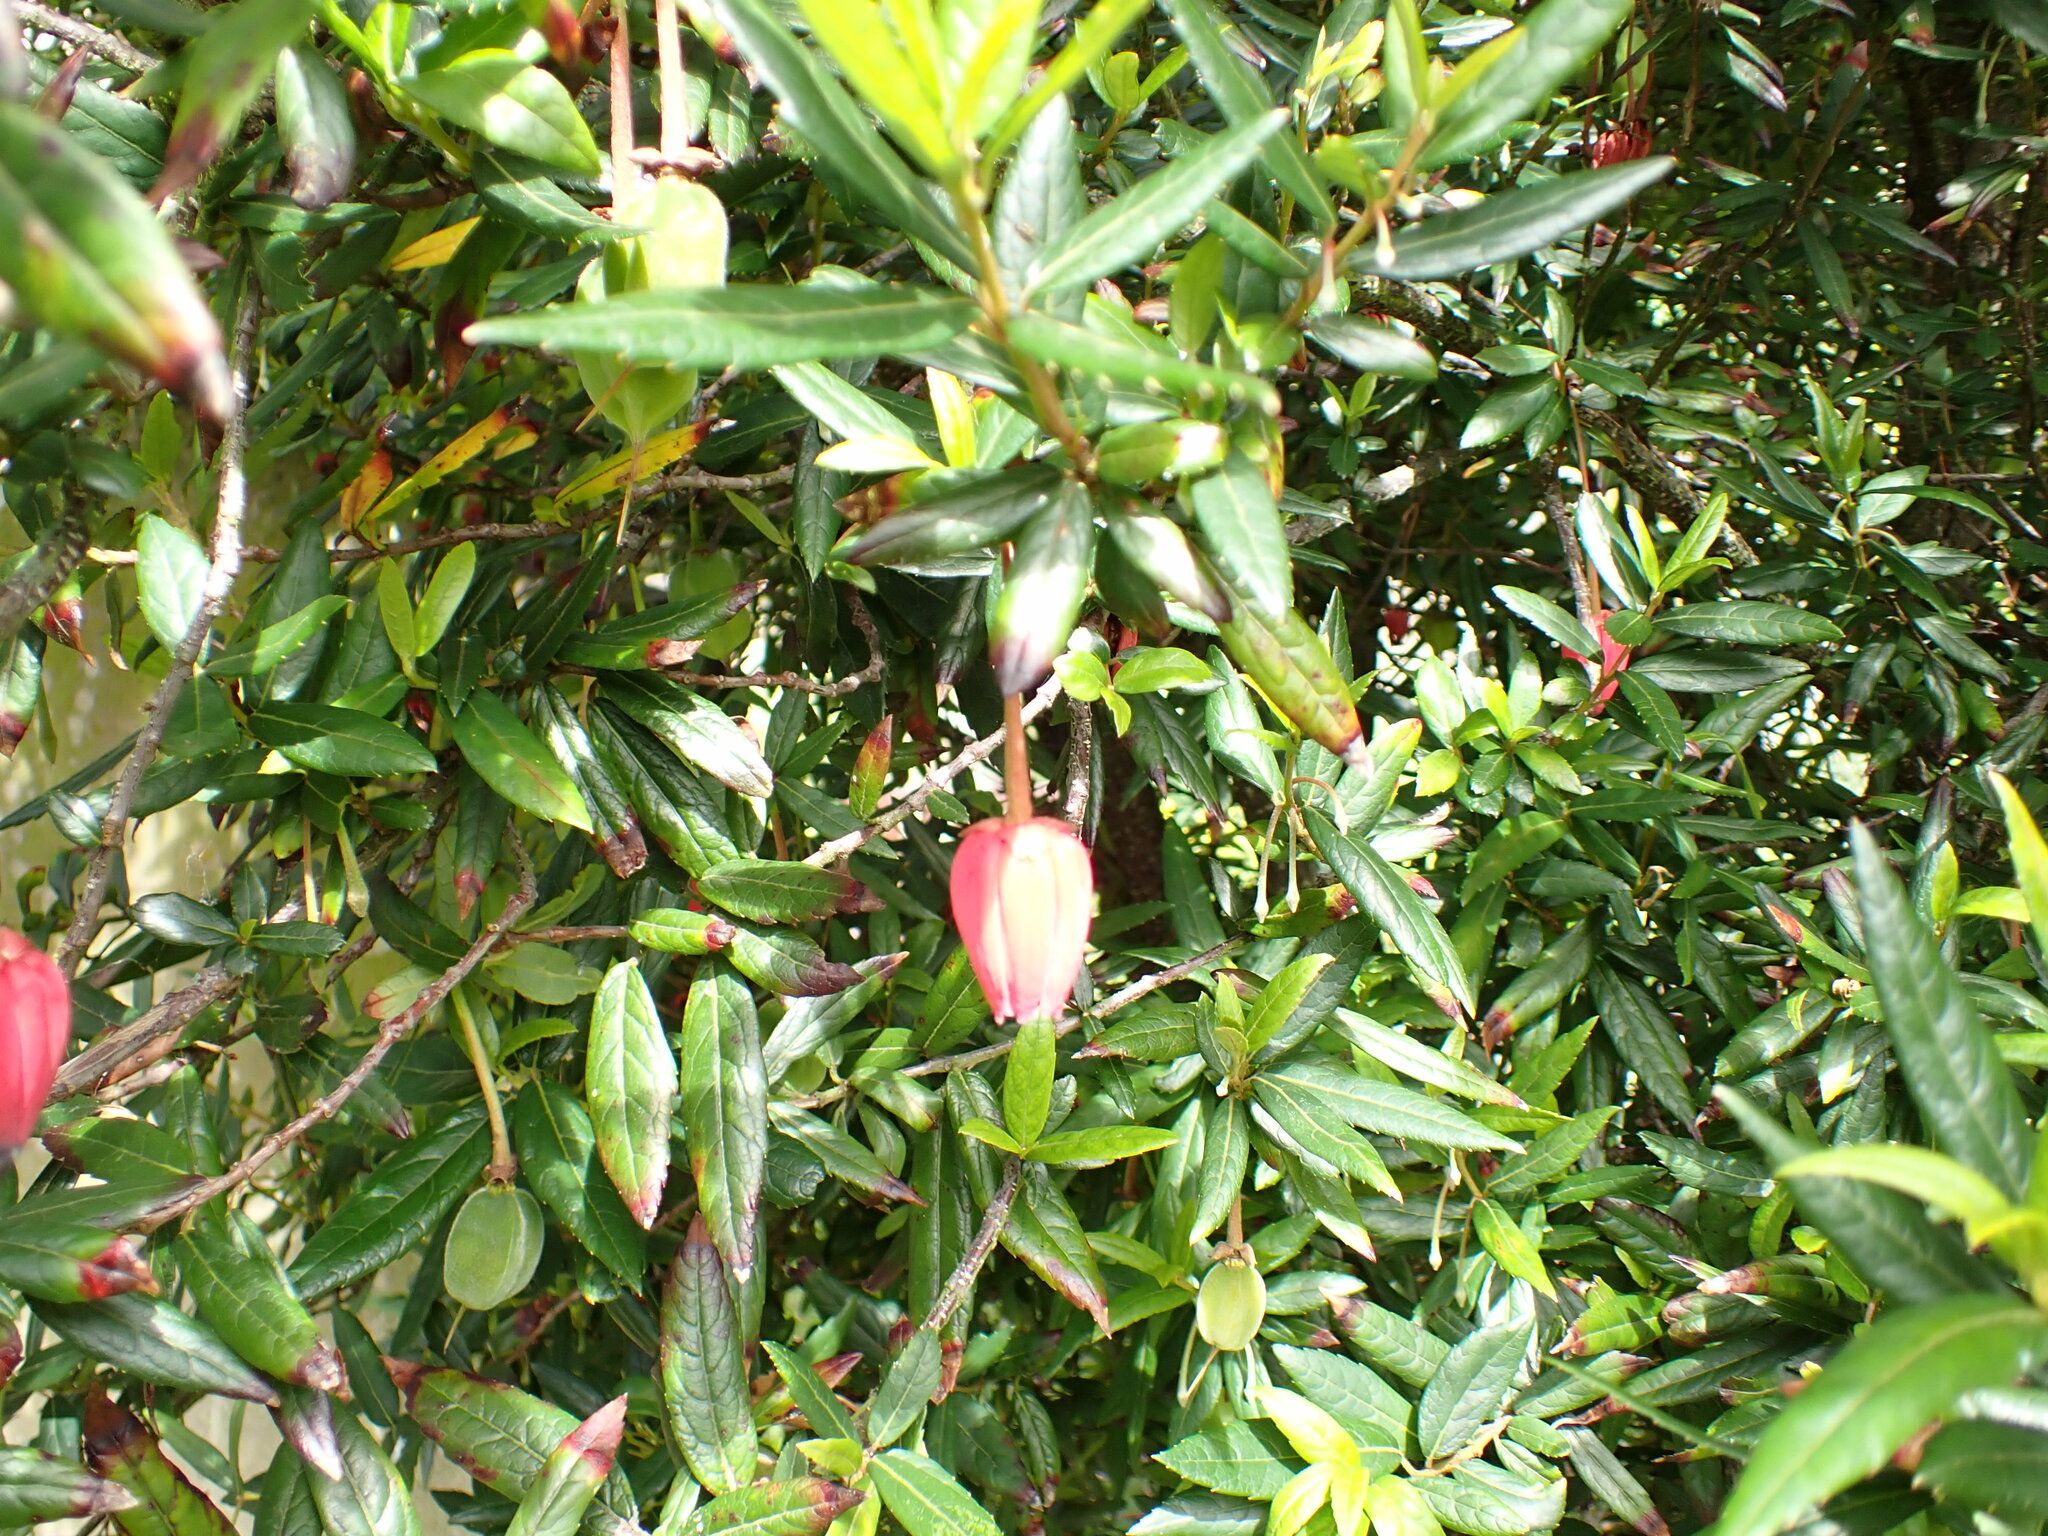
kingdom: Plantae
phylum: Tracheophyta
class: Magnoliopsida
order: Oxalidales
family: Elaeocarpaceae
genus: Crinodendron
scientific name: Crinodendron hookerianum
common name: Lanterntree
